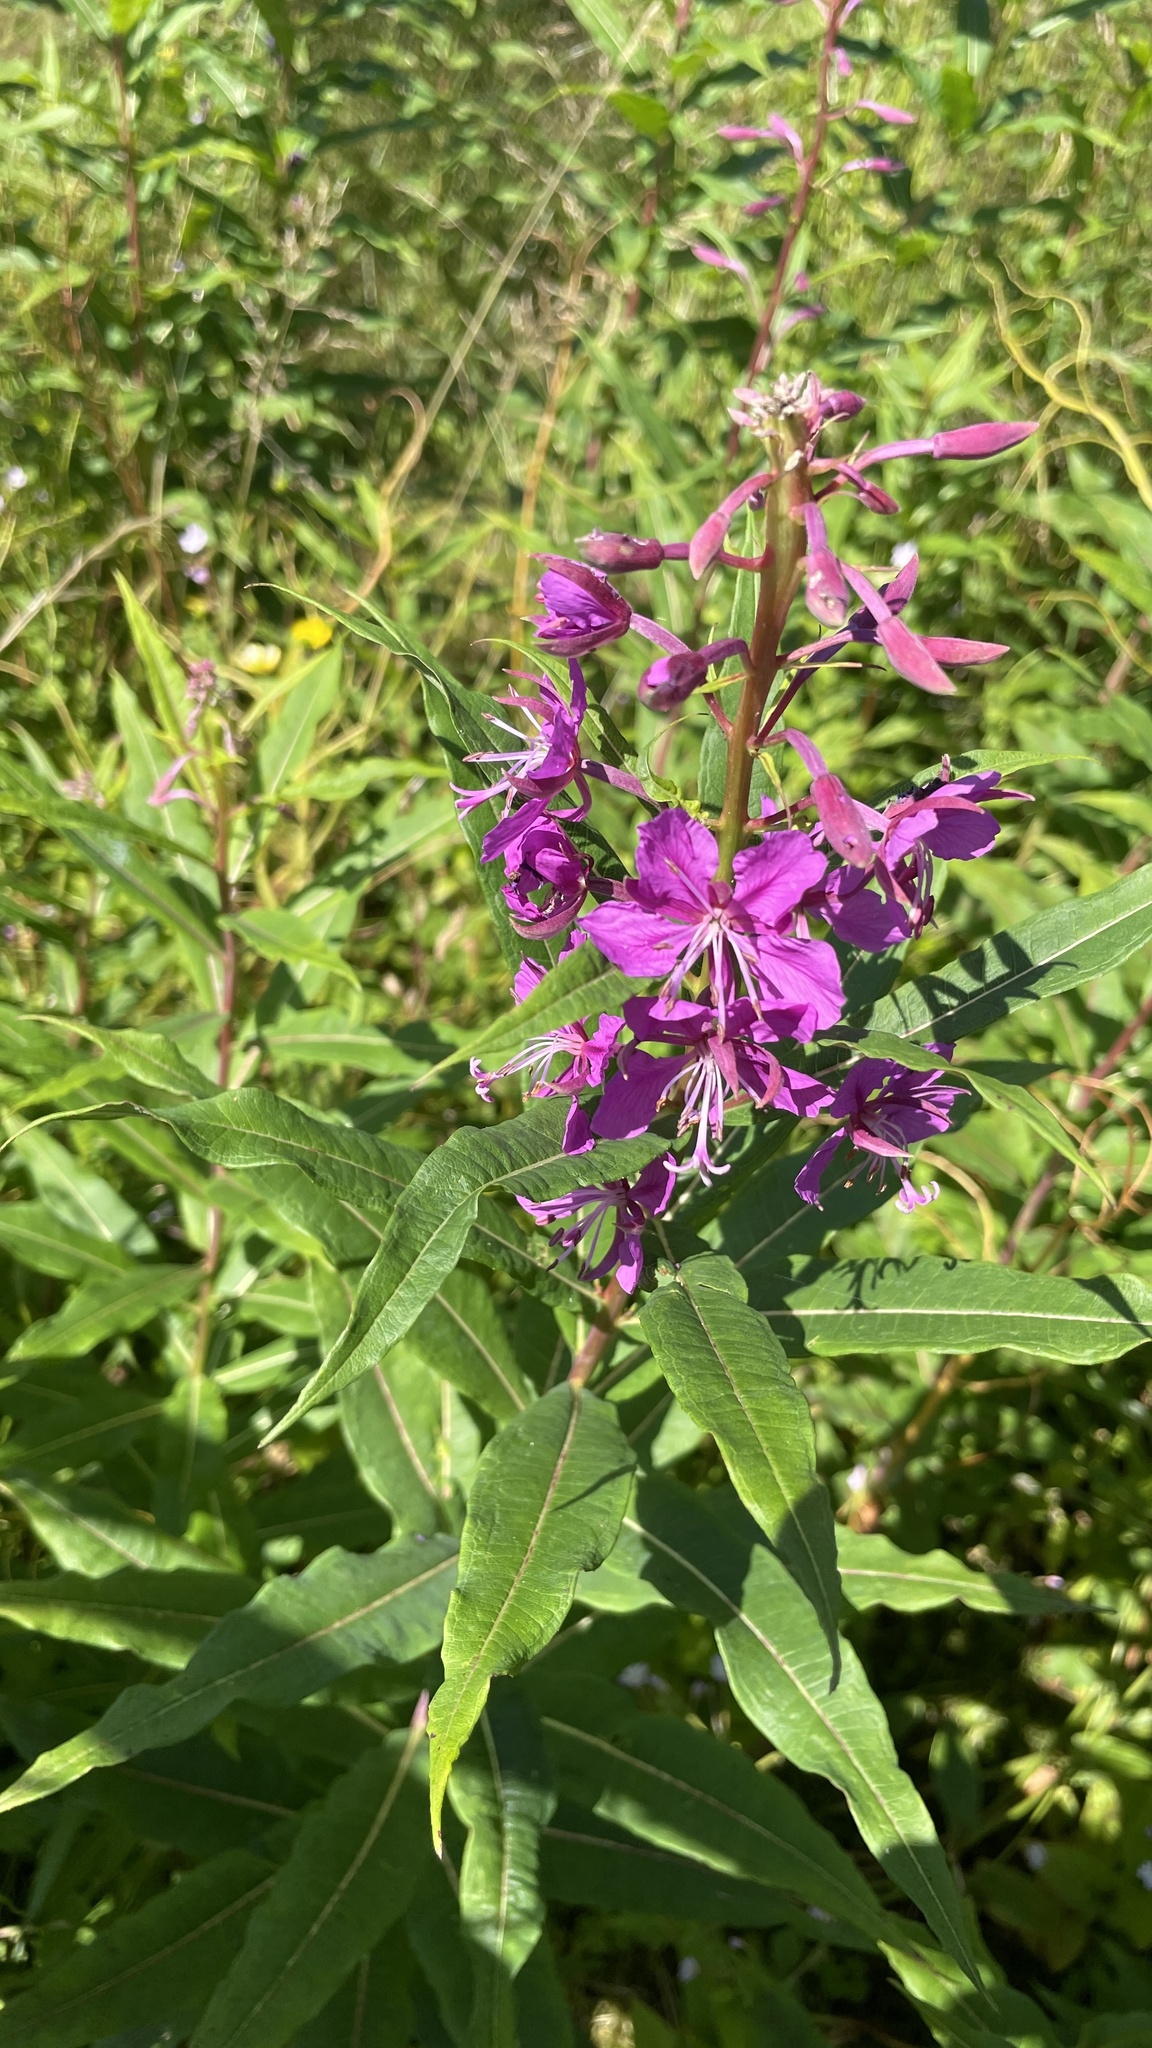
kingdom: Plantae
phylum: Tracheophyta
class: Magnoliopsida
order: Myrtales
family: Onagraceae
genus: Chamaenerion
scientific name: Chamaenerion angustifolium
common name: Fireweed
